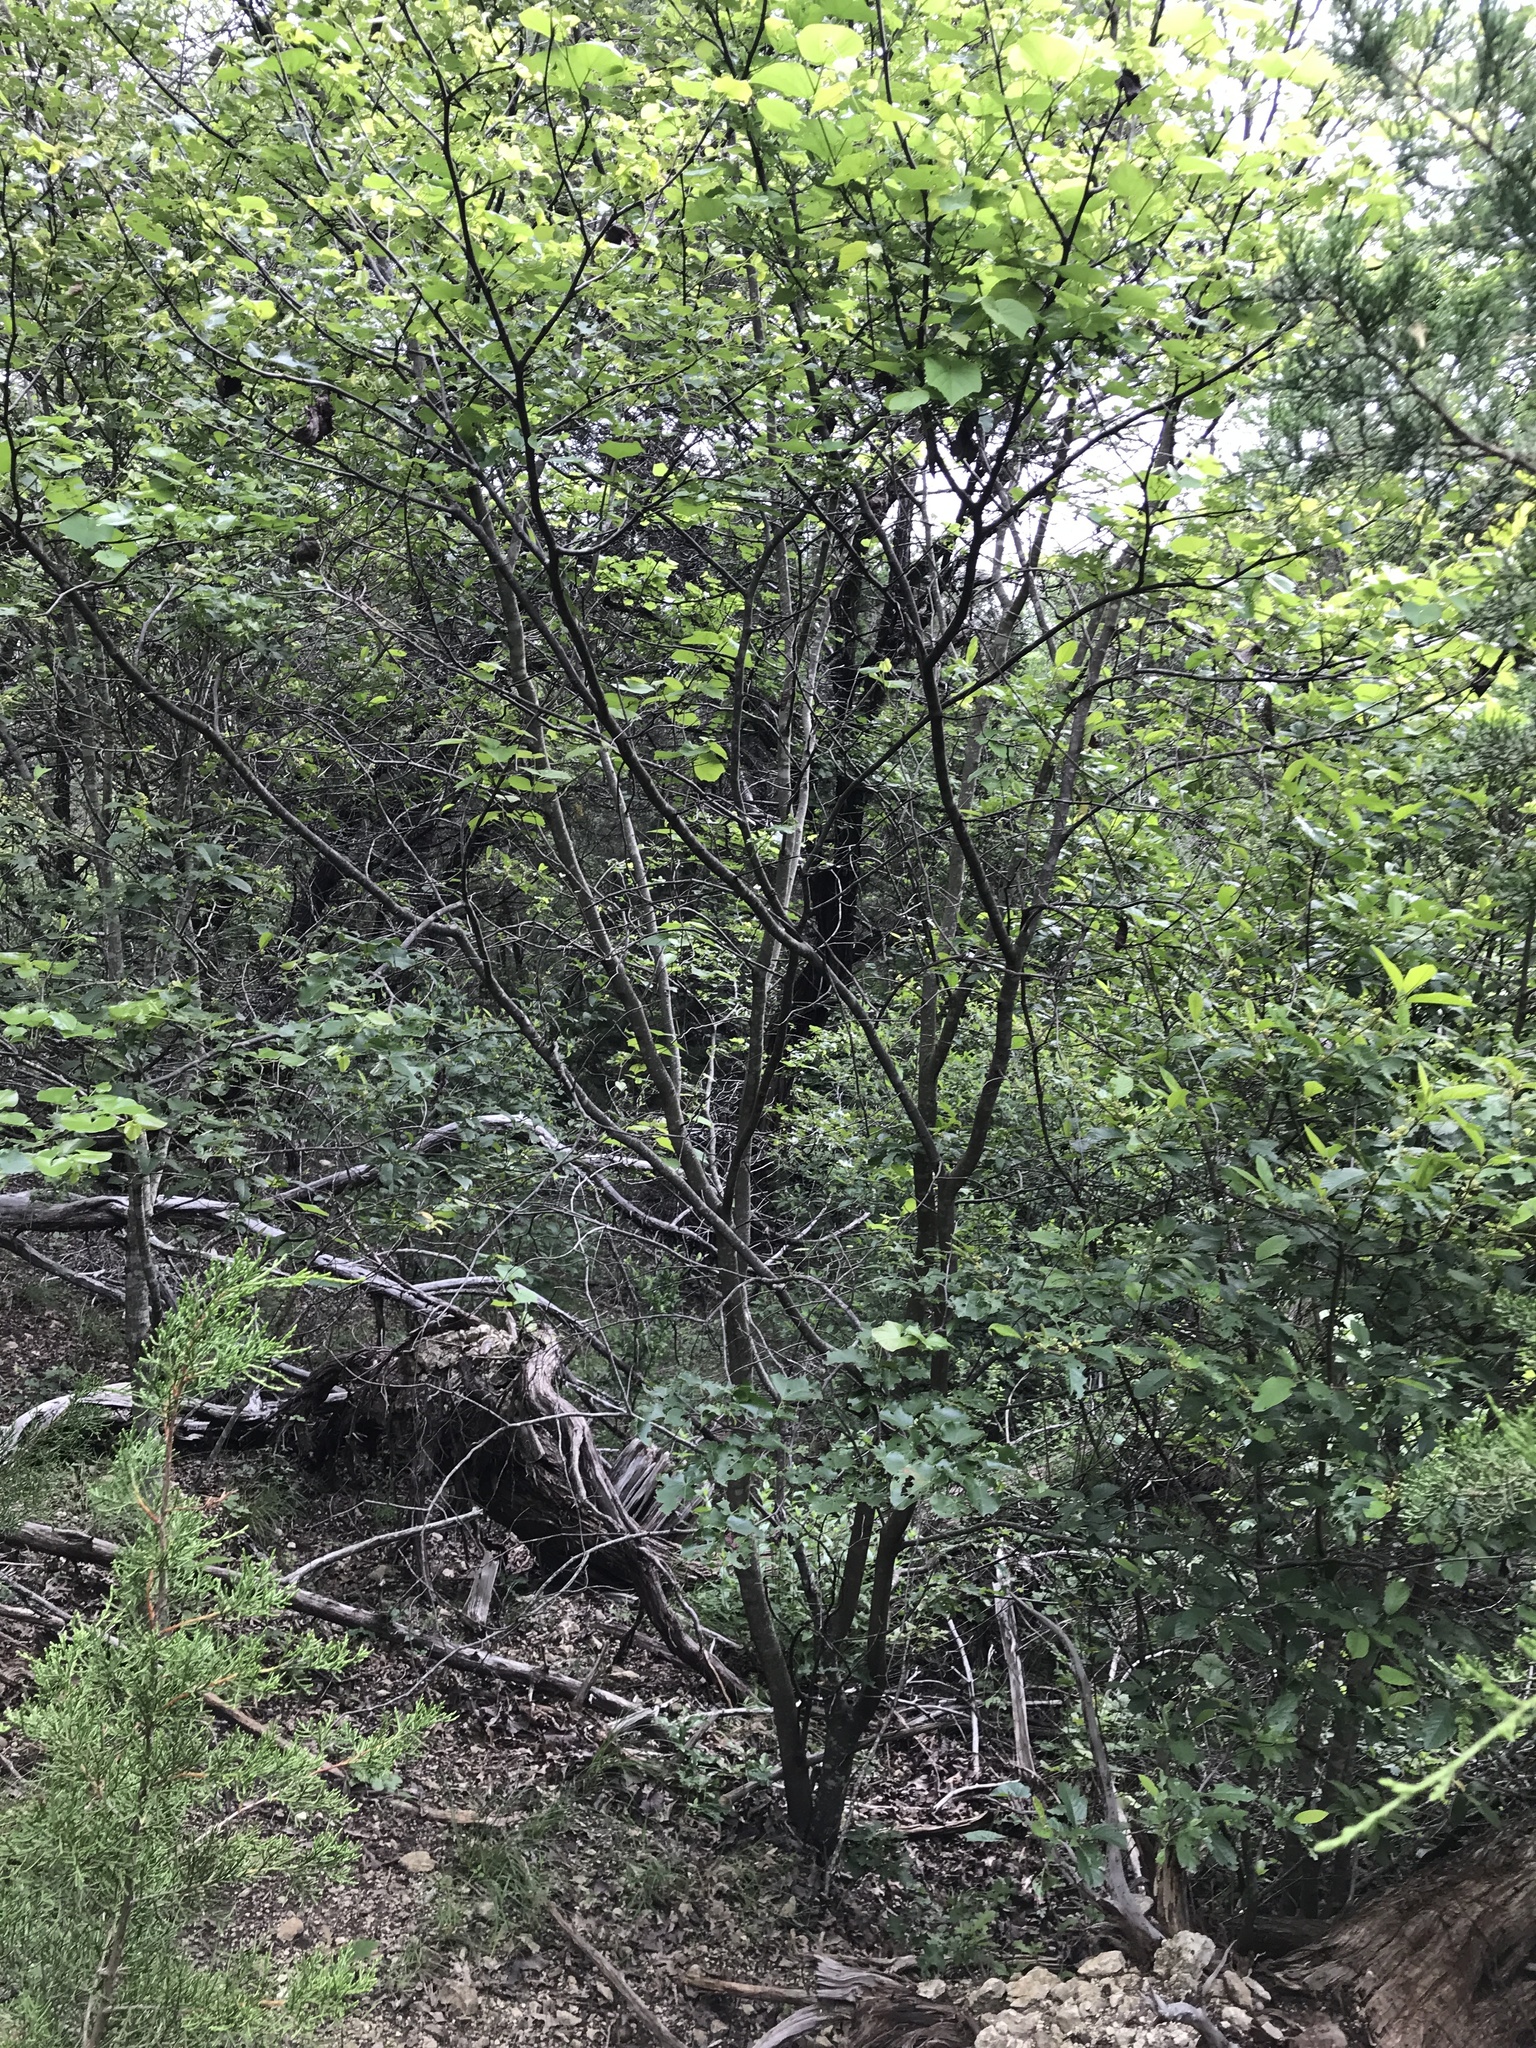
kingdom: Plantae
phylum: Tracheophyta
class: Magnoliopsida
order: Fabales
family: Fabaceae
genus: Cercis
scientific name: Cercis canadensis
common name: Eastern redbud
